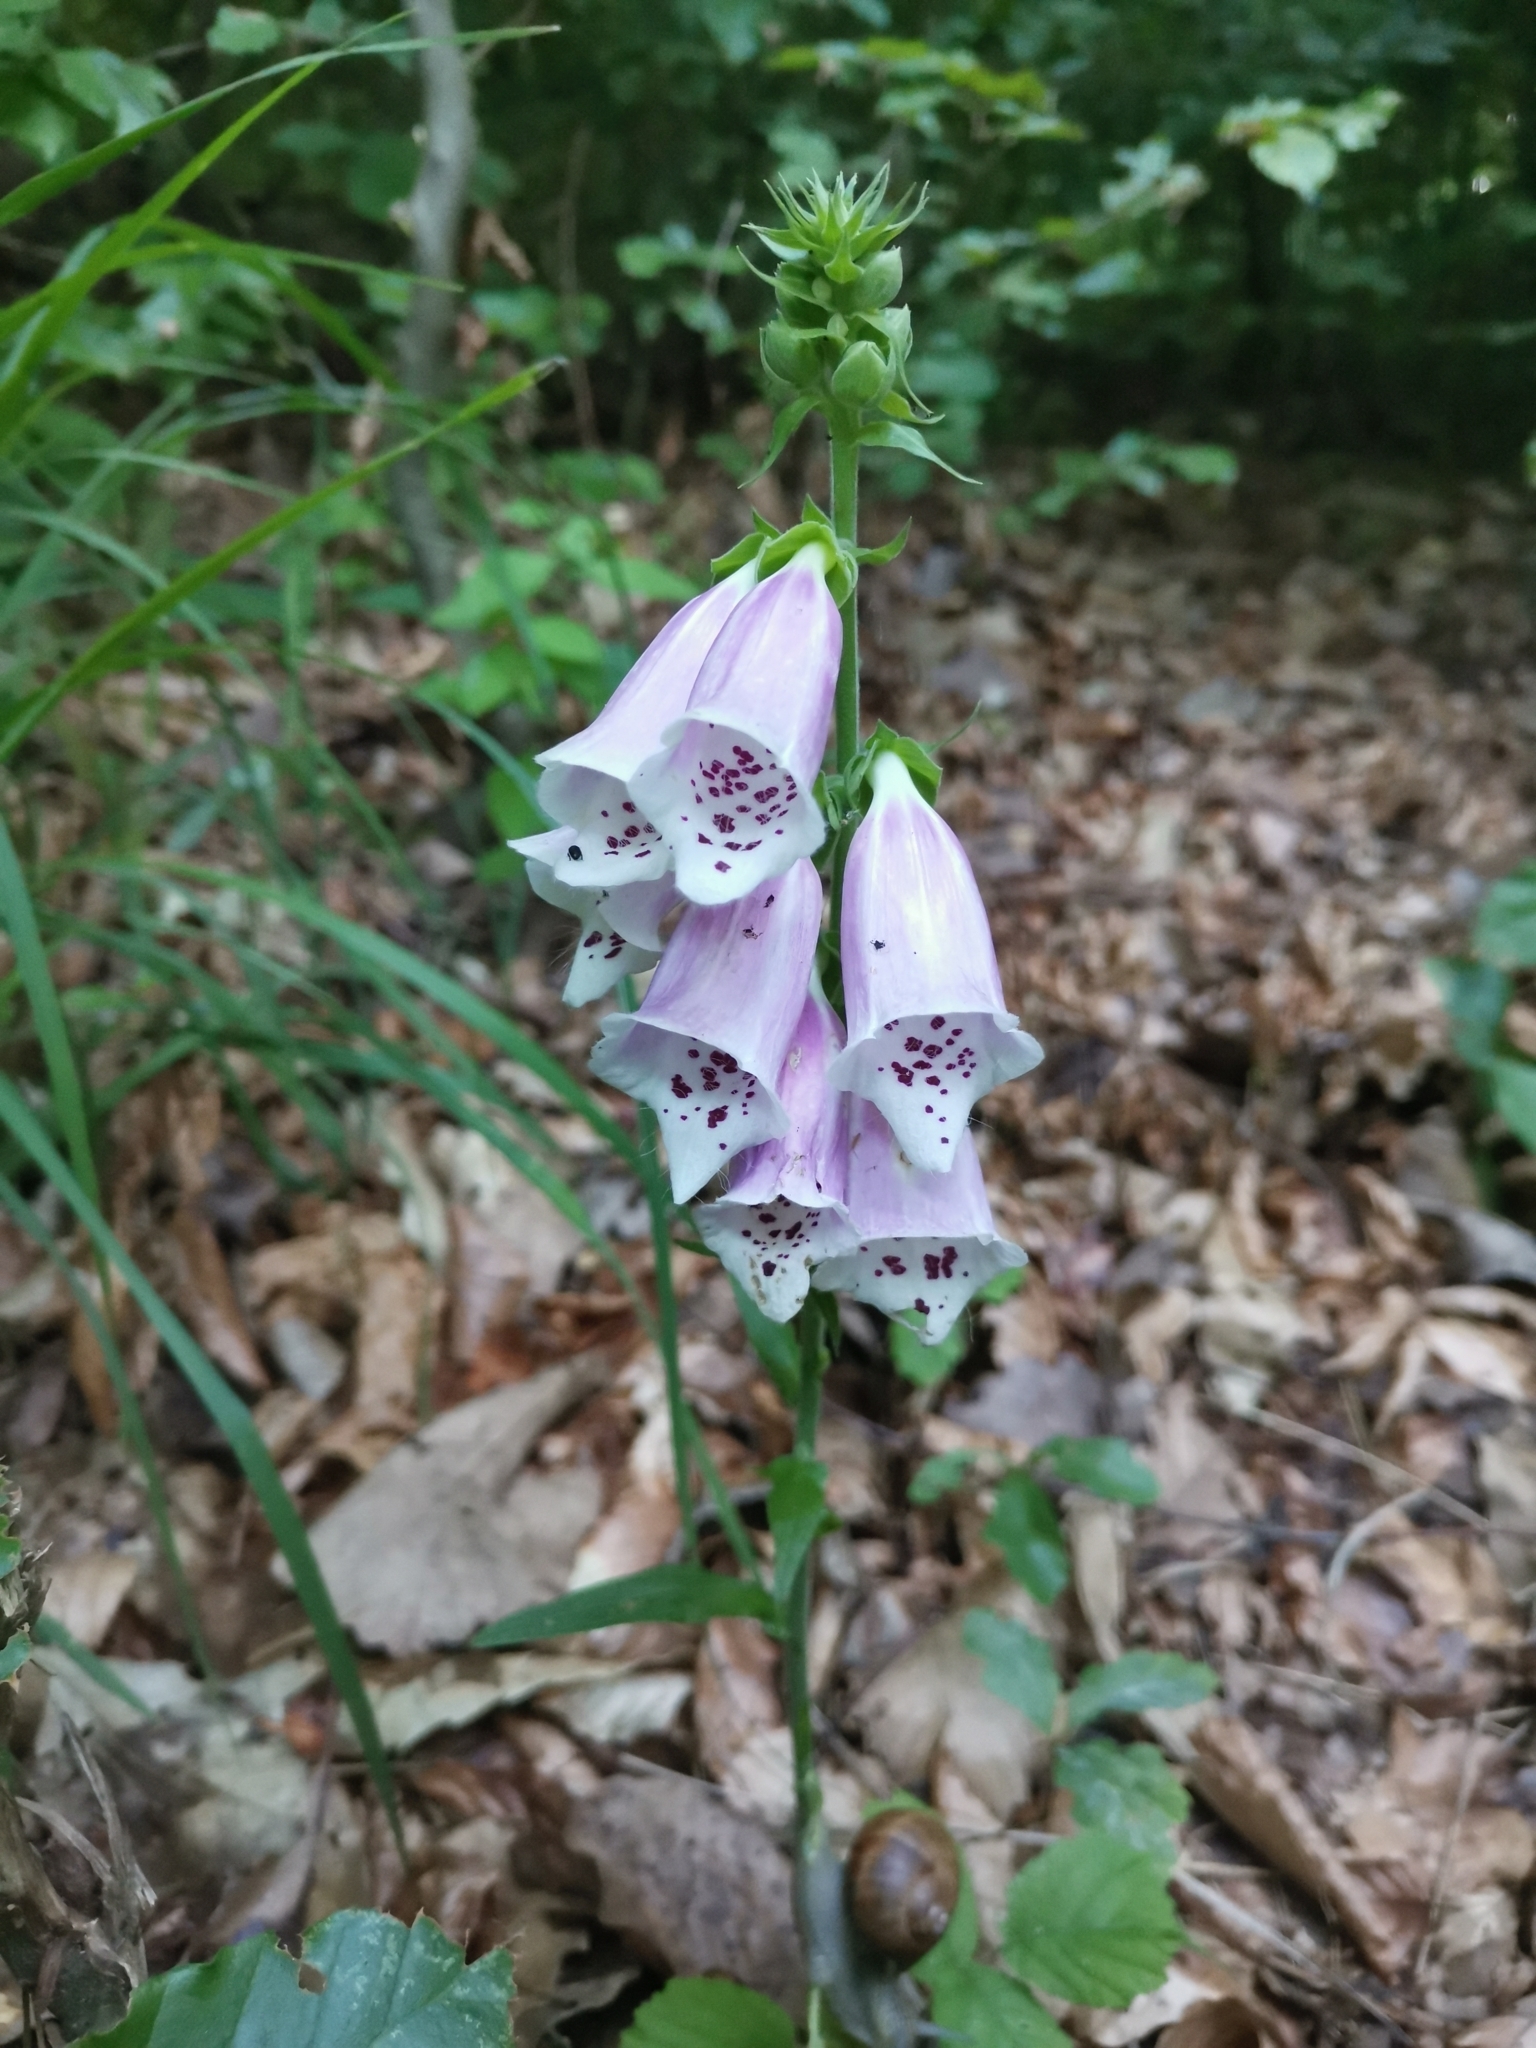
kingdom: Plantae
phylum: Tracheophyta
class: Magnoliopsida
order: Lamiales
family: Plantaginaceae
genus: Digitalis
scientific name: Digitalis purpurea
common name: Foxglove
